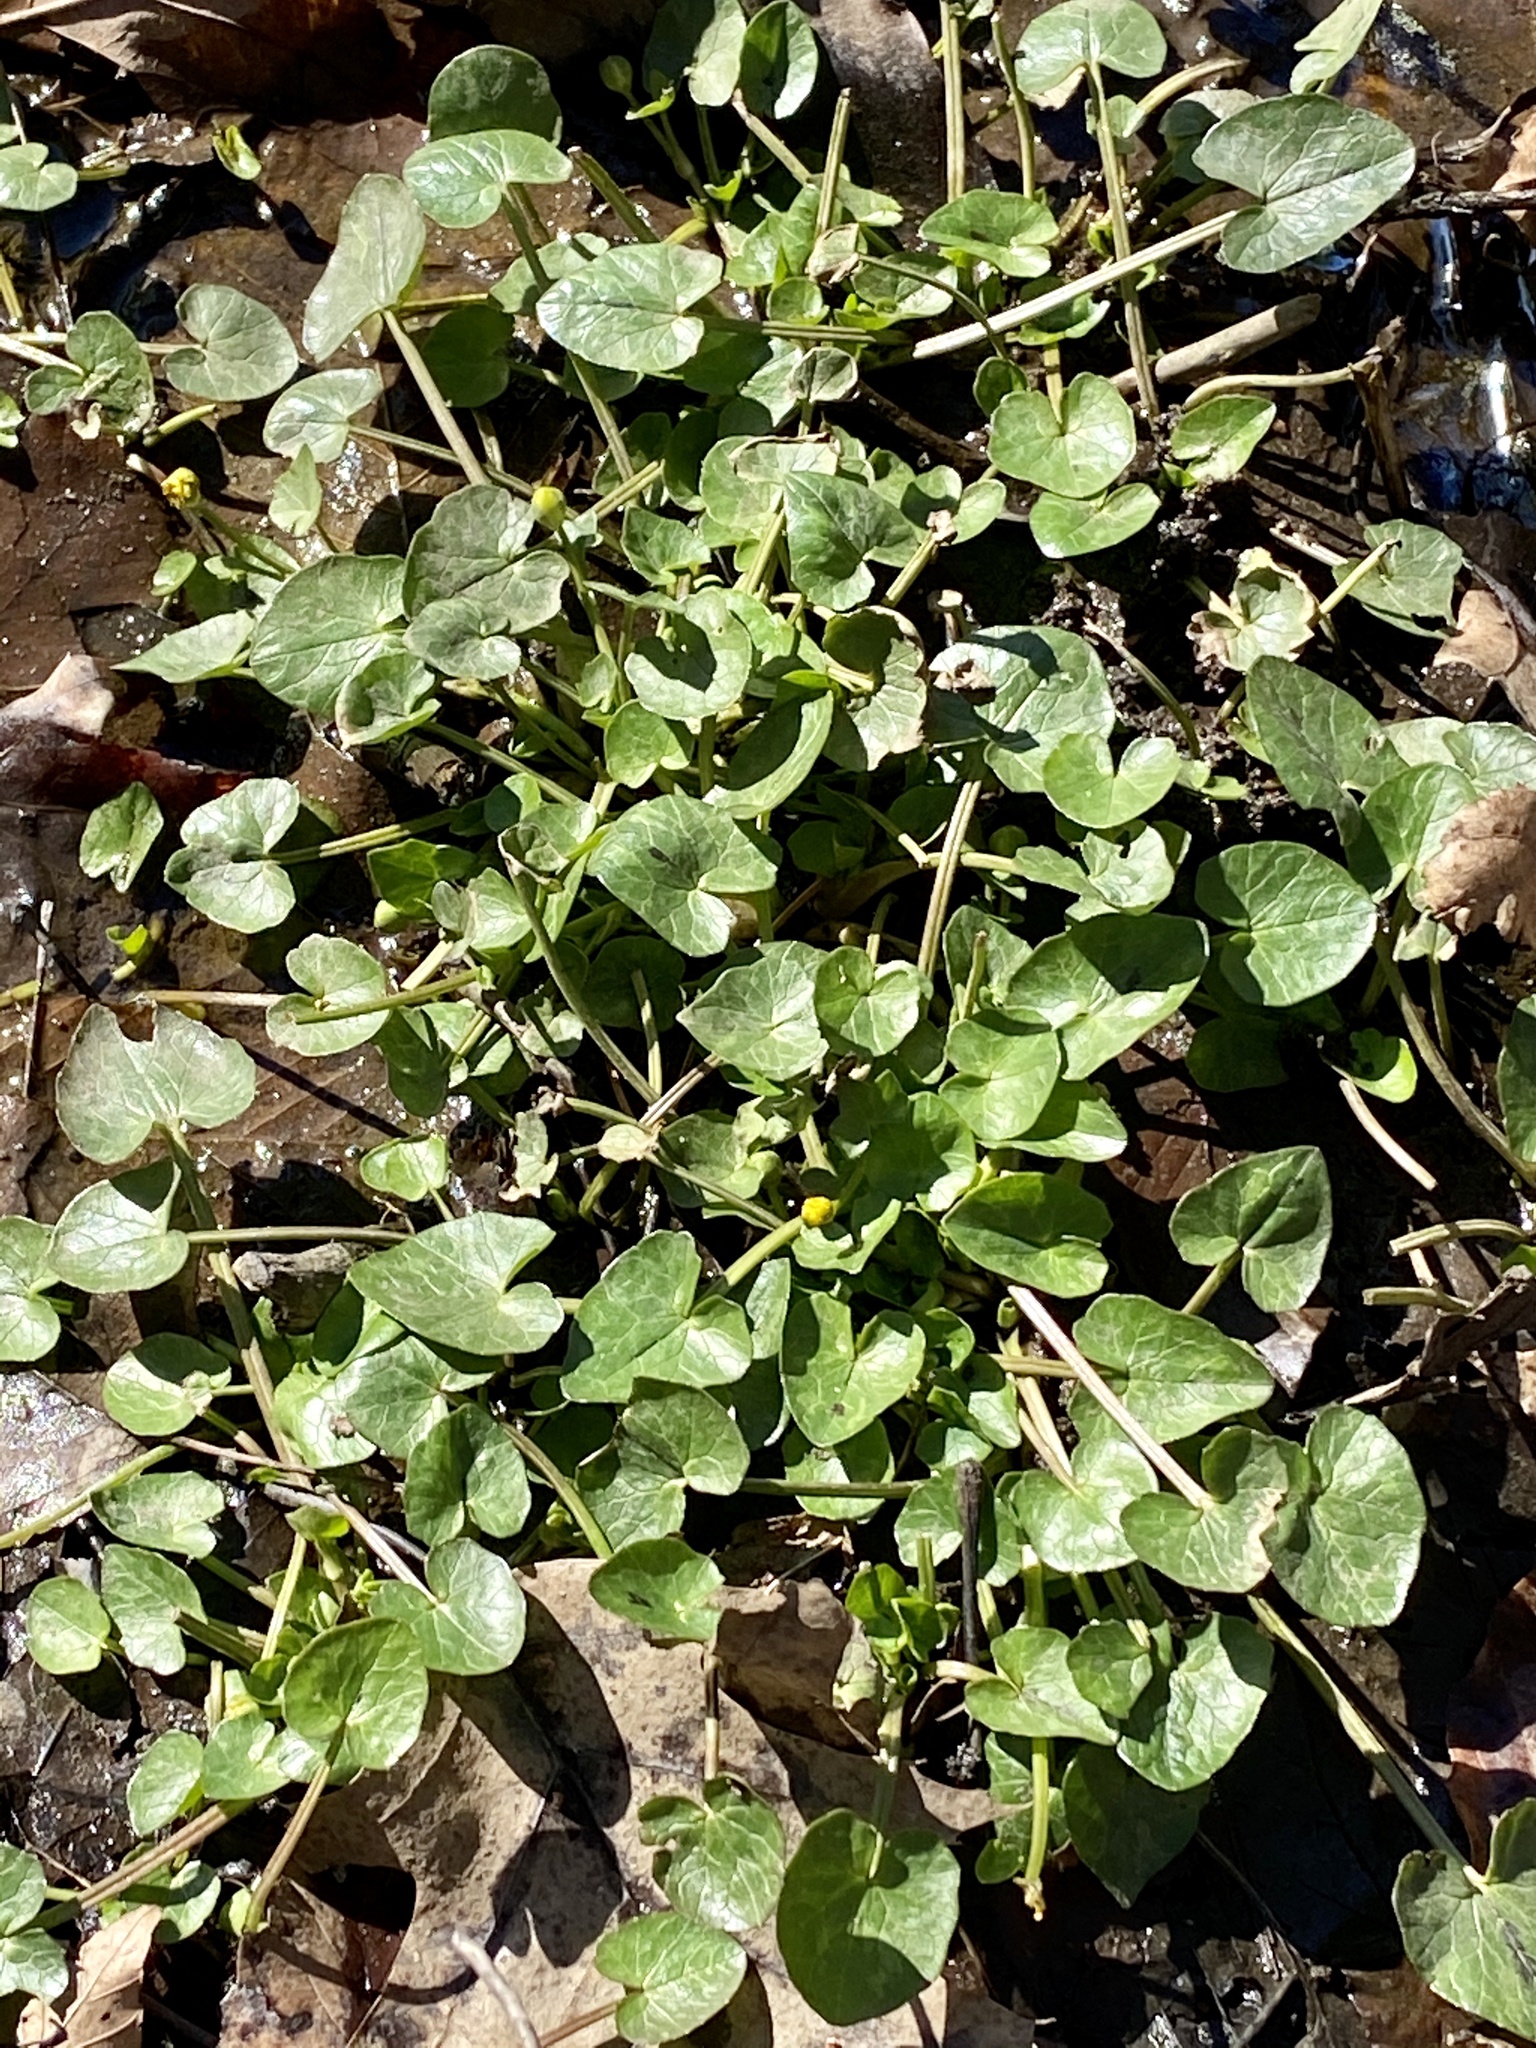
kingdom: Plantae
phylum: Tracheophyta
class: Magnoliopsida
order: Ranunculales
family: Ranunculaceae
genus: Ficaria
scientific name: Ficaria verna
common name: Lesser celandine
